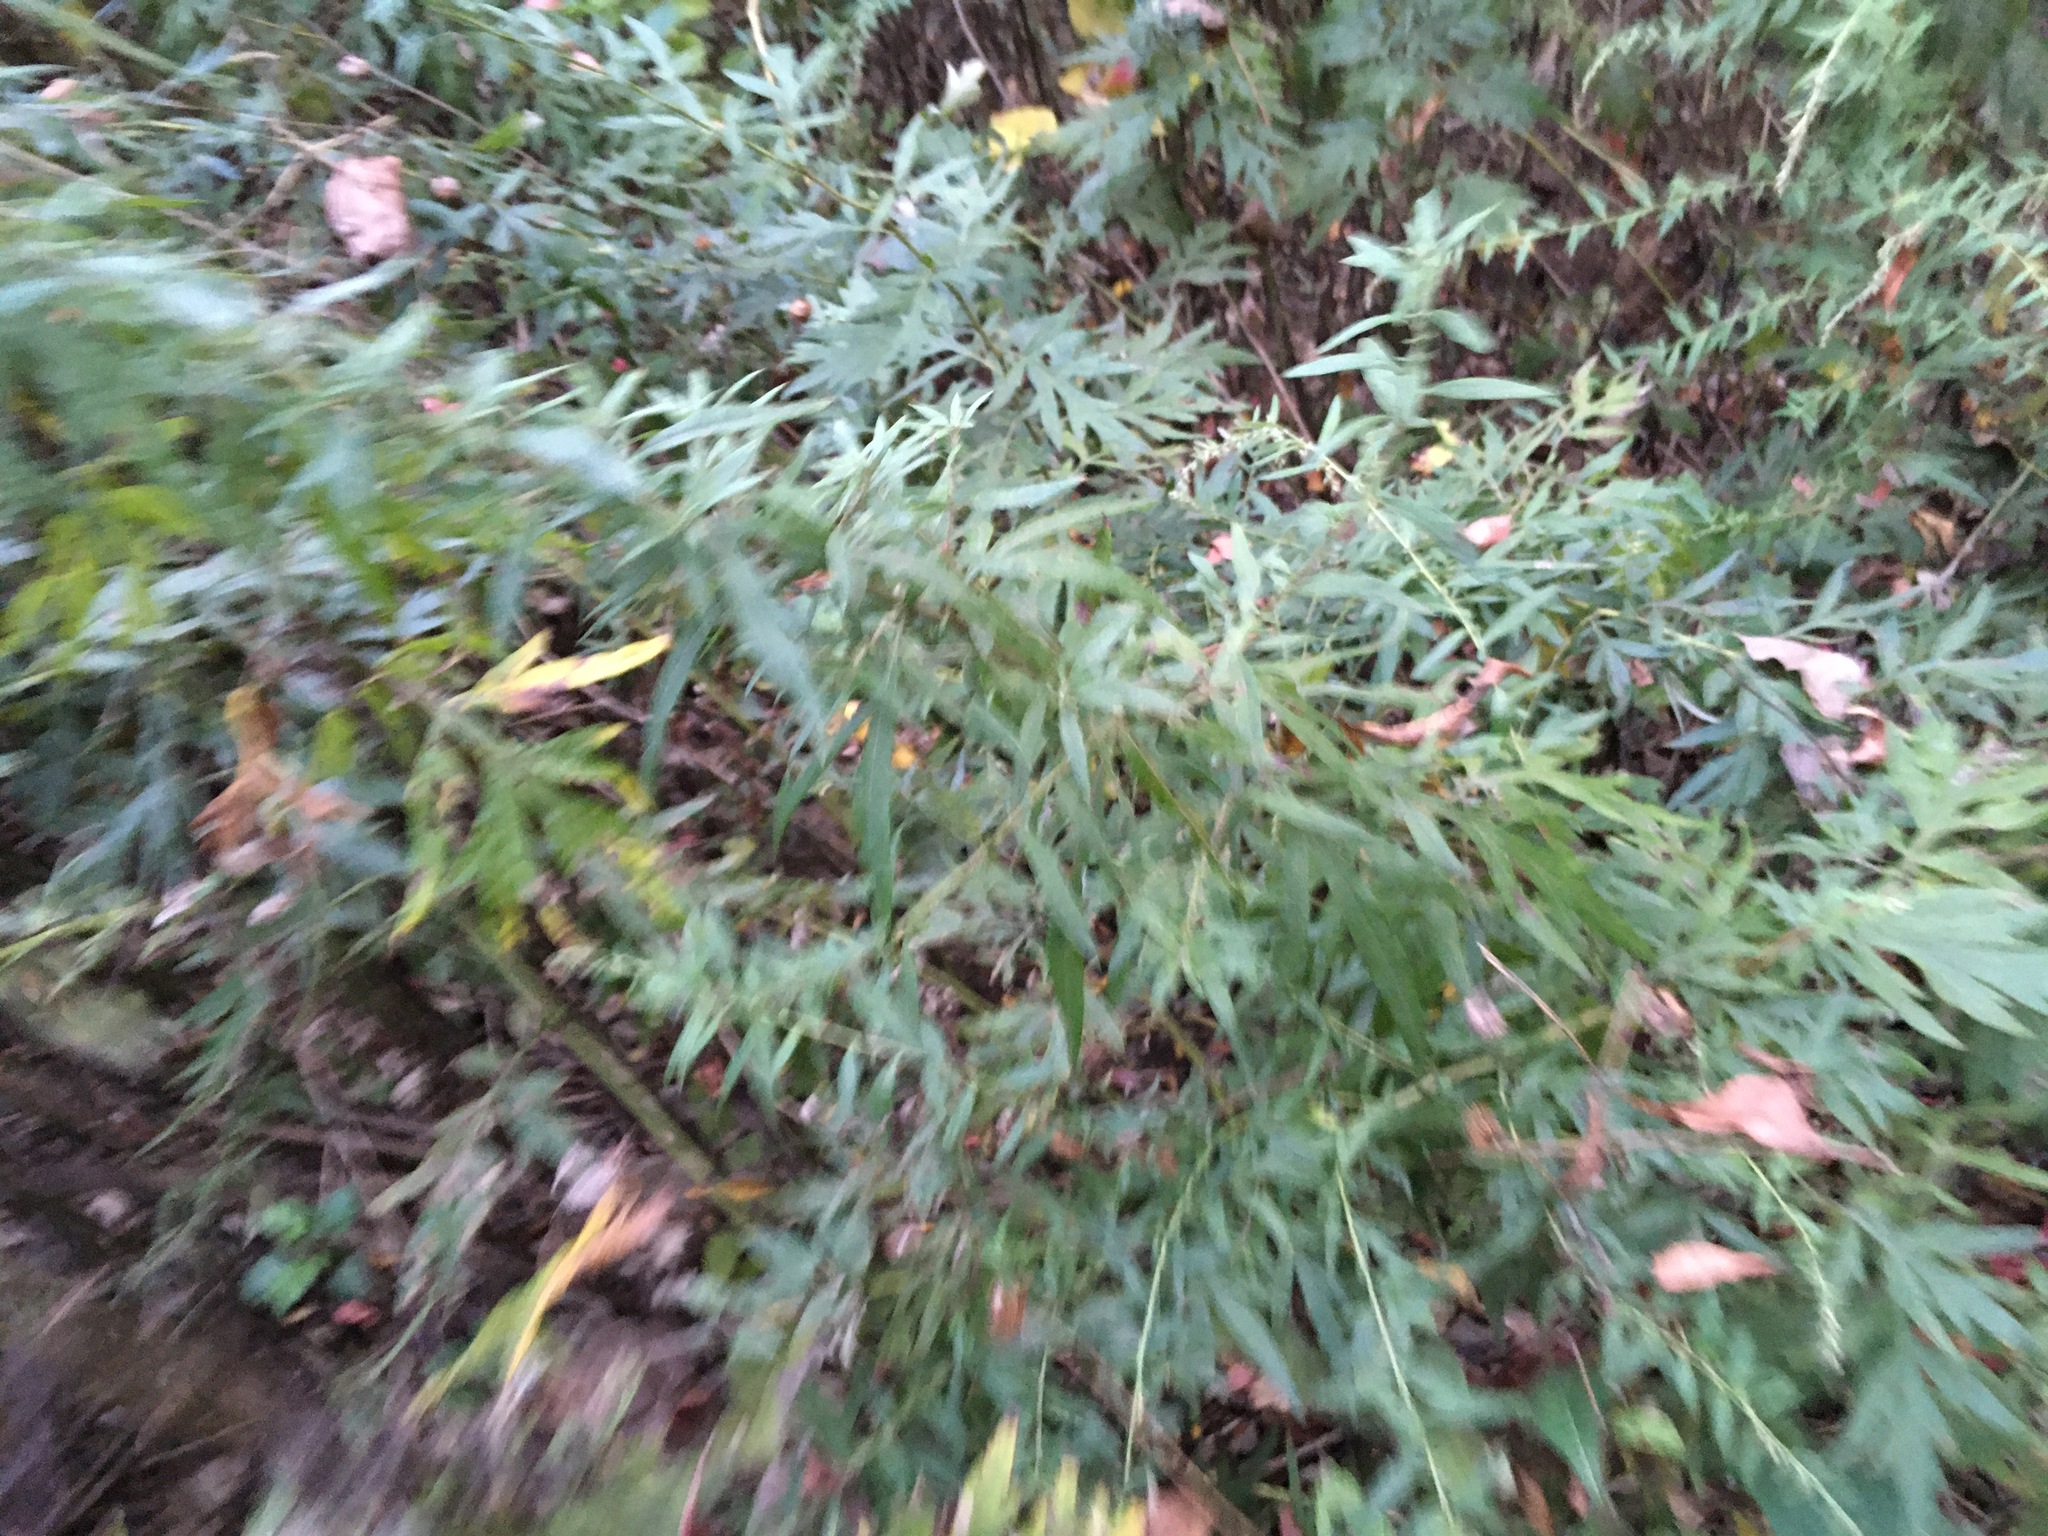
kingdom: Plantae
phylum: Tracheophyta
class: Magnoliopsida
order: Asterales
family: Asteraceae
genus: Artemisia
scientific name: Artemisia vulgaris
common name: Mugwort
